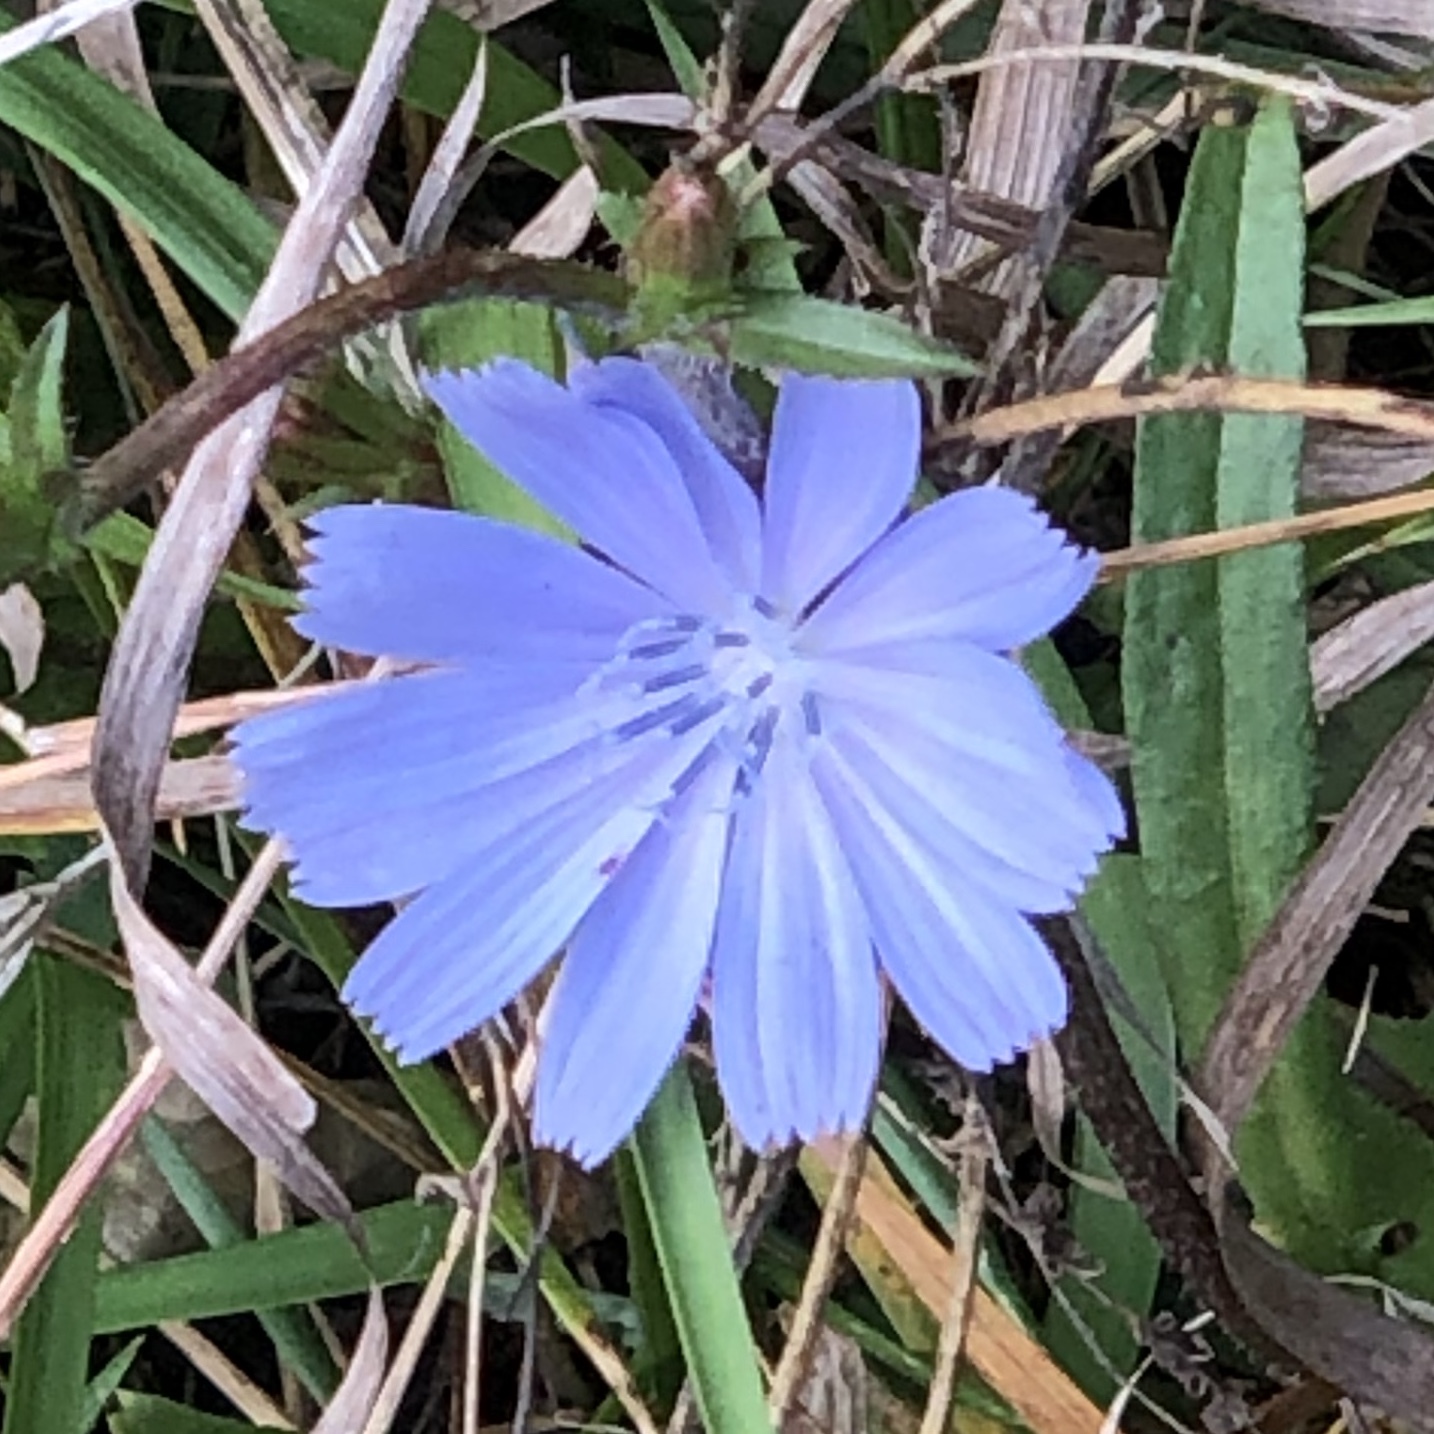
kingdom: Plantae
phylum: Tracheophyta
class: Magnoliopsida
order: Asterales
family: Asteraceae
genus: Cichorium
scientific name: Cichorium intybus
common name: Chicory
